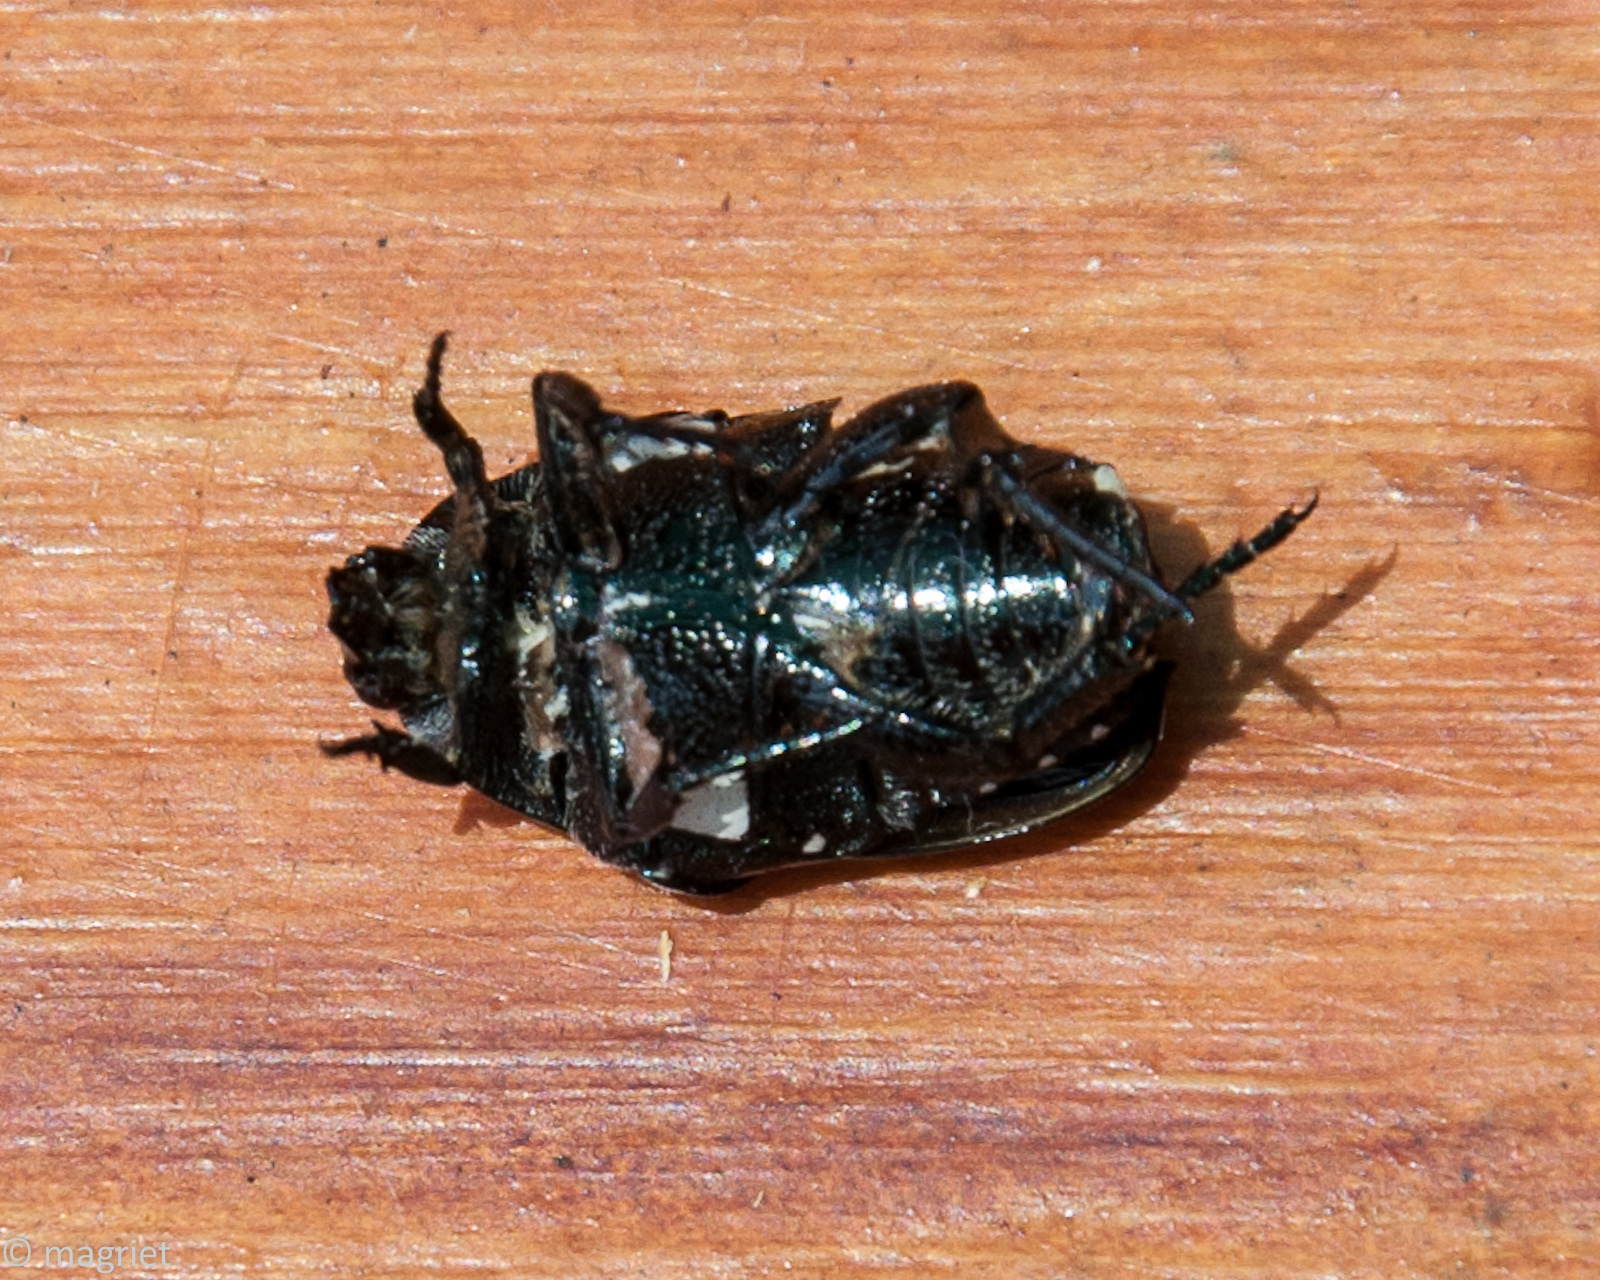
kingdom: Animalia
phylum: Arthropoda
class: Insecta
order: Coleoptera
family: Scarabaeidae
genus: Mausoleopsis
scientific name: Mausoleopsis amabilis
